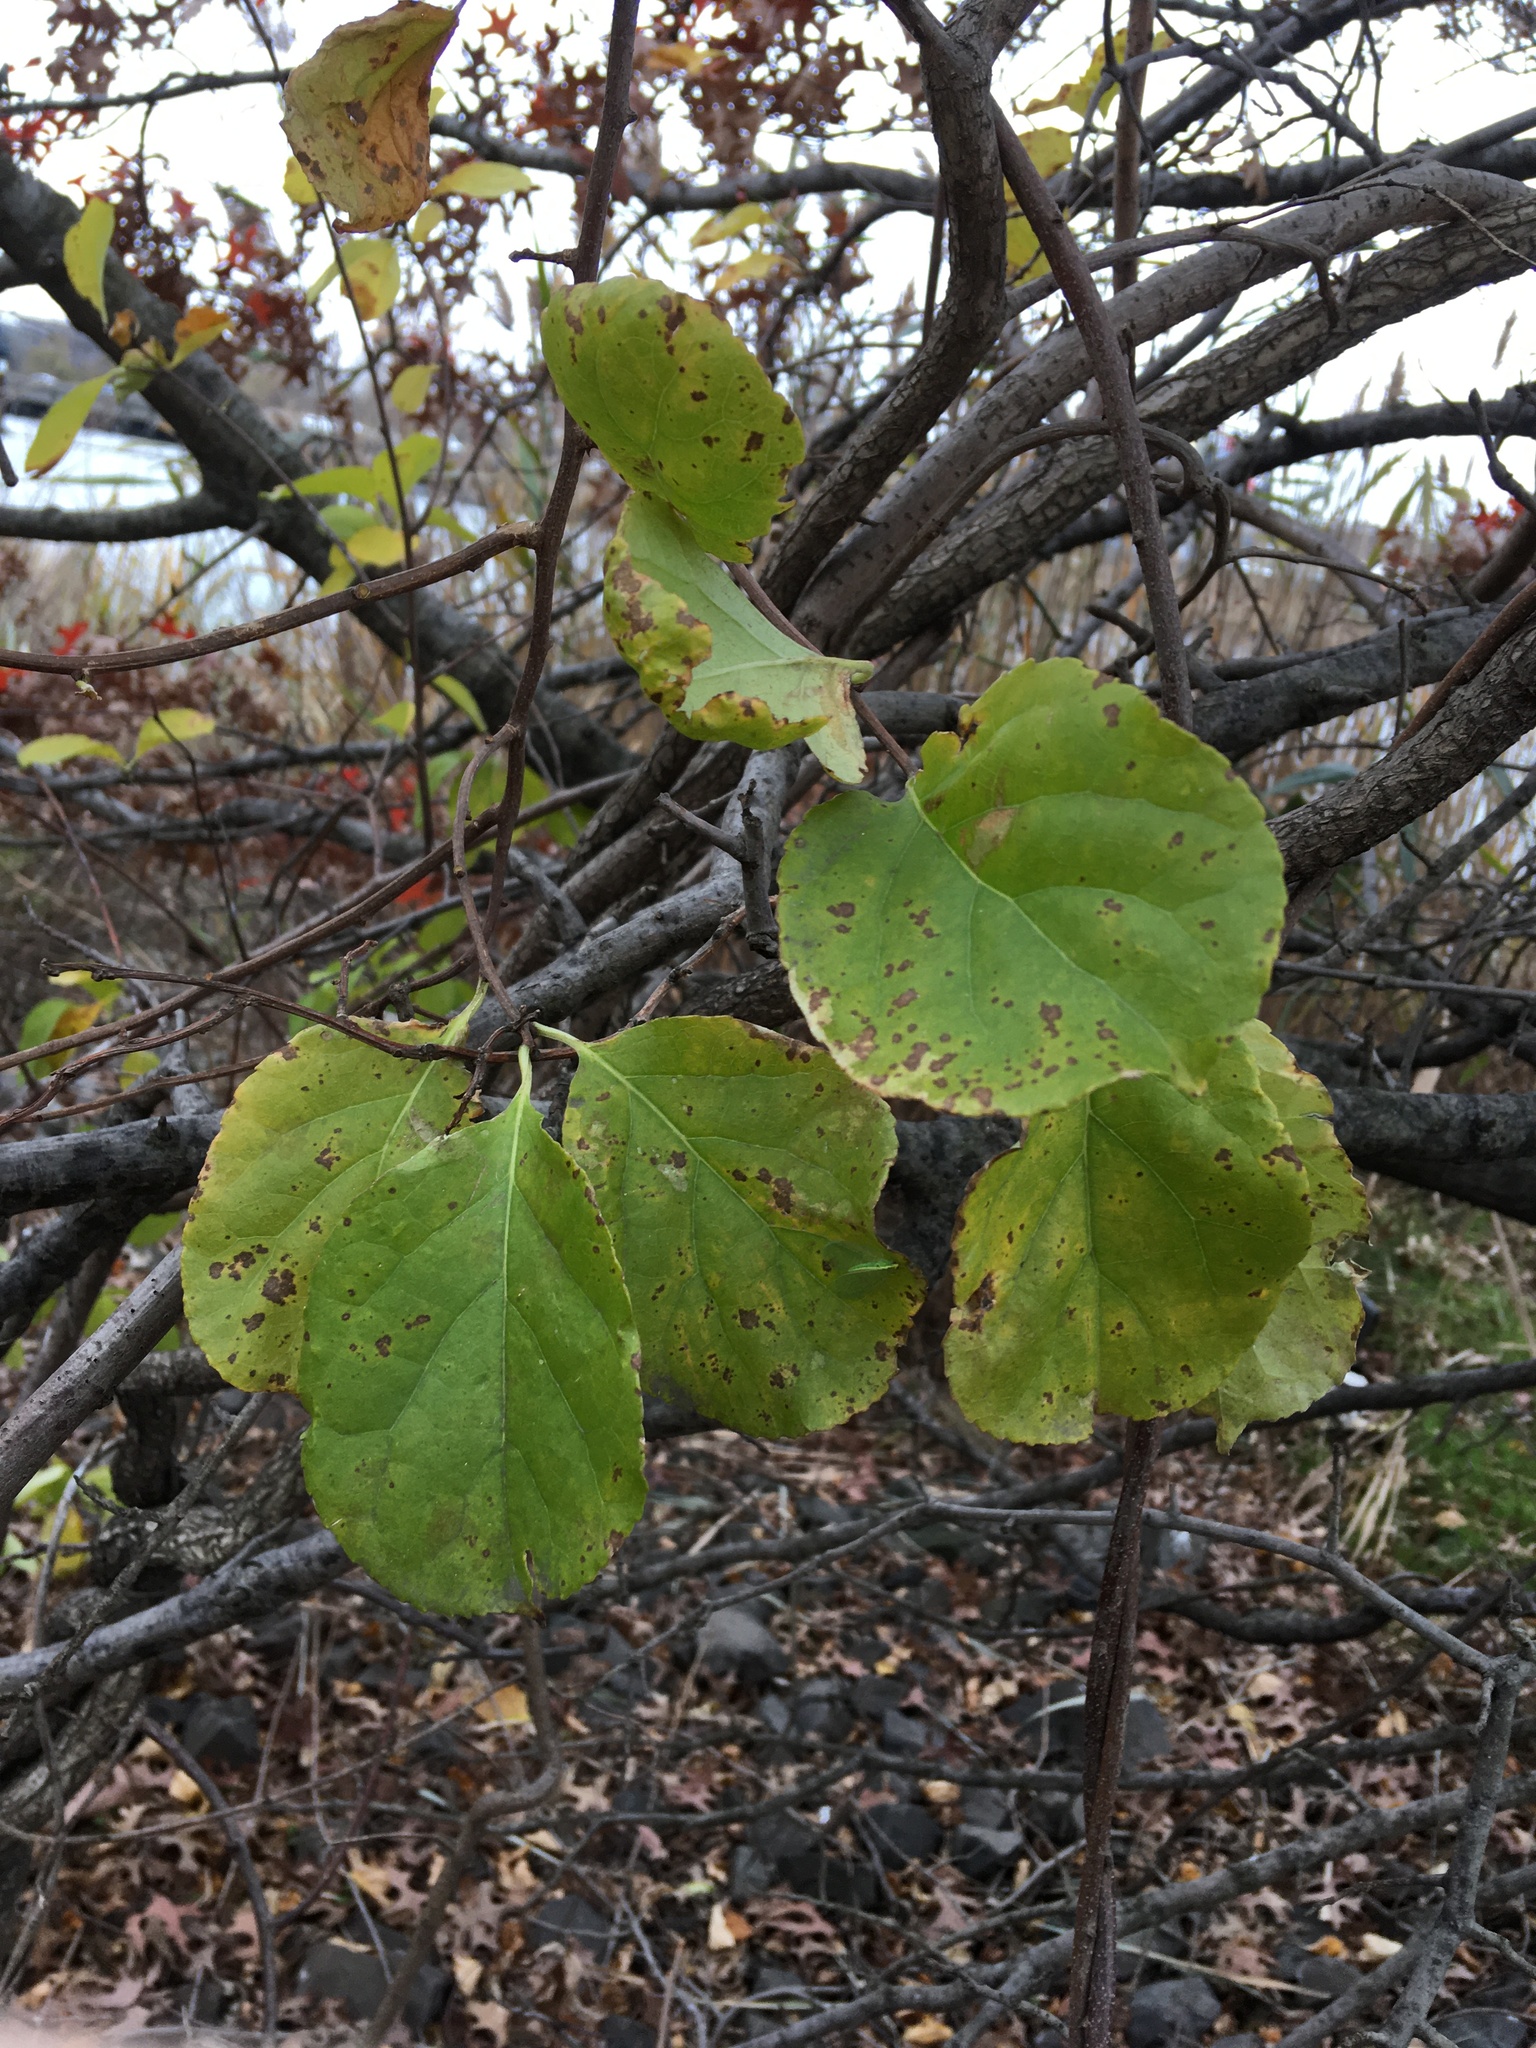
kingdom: Plantae
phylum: Tracheophyta
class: Magnoliopsida
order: Celastrales
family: Celastraceae
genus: Celastrus
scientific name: Celastrus orbiculatus
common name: Oriental bittersweet
